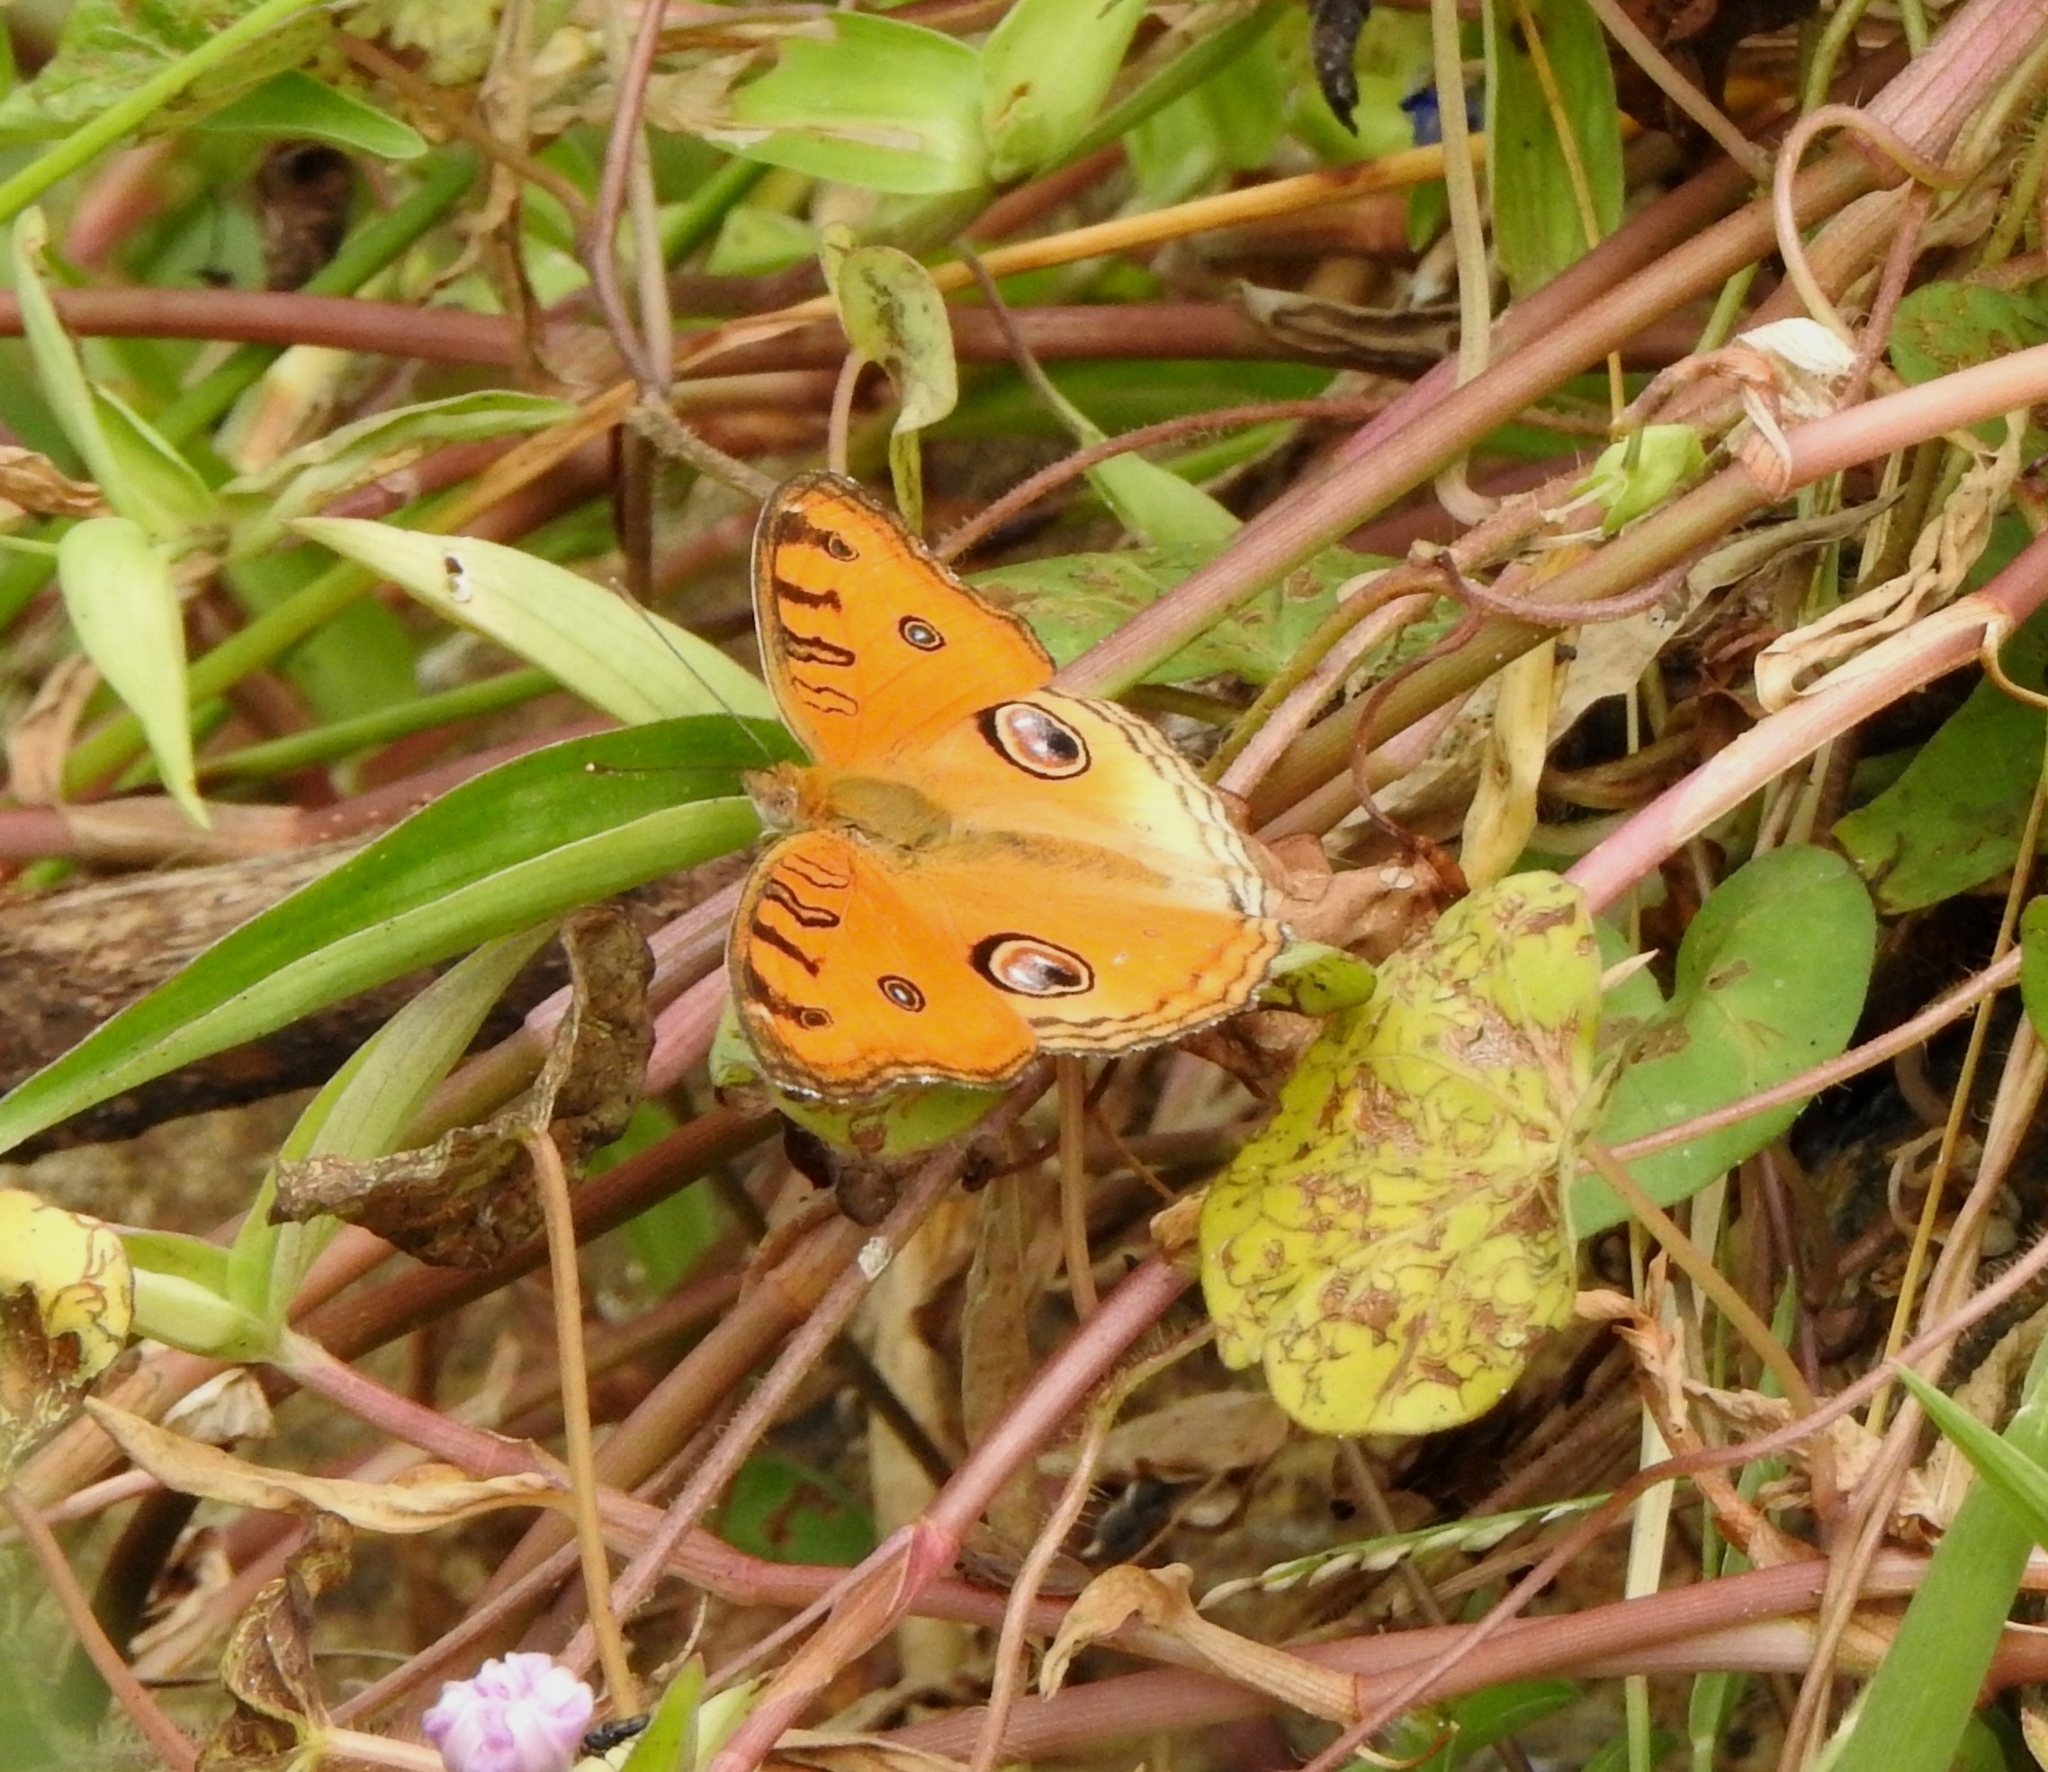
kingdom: Animalia
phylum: Arthropoda
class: Insecta
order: Lepidoptera
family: Nymphalidae
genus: Junonia
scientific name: Junonia almana
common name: Peacock pansy
